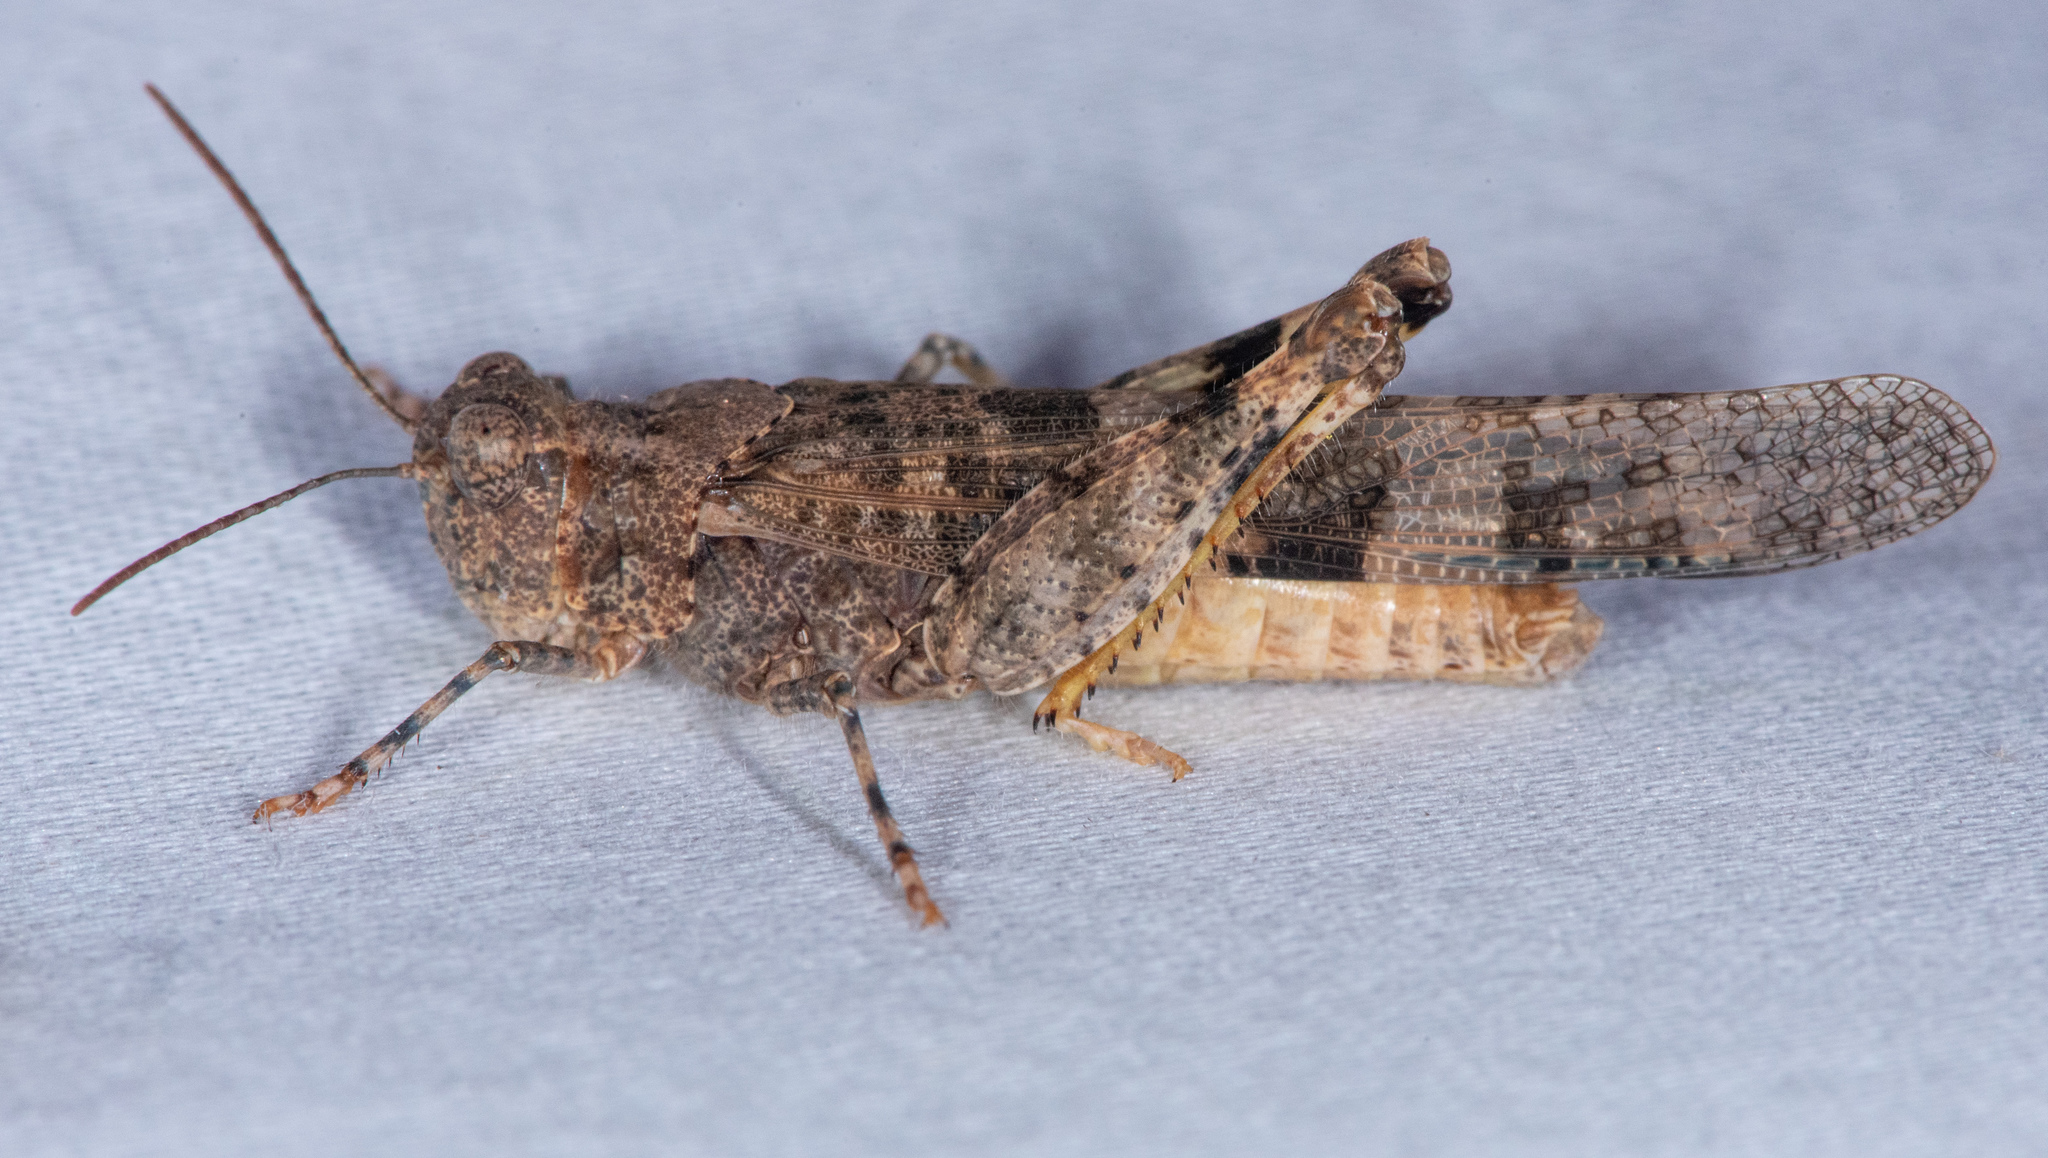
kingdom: Animalia
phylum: Arthropoda
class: Insecta
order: Orthoptera
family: Acrididae
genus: Trimerotropis
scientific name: Trimerotropis pallidipennis
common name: Pallid-winged grasshopper
